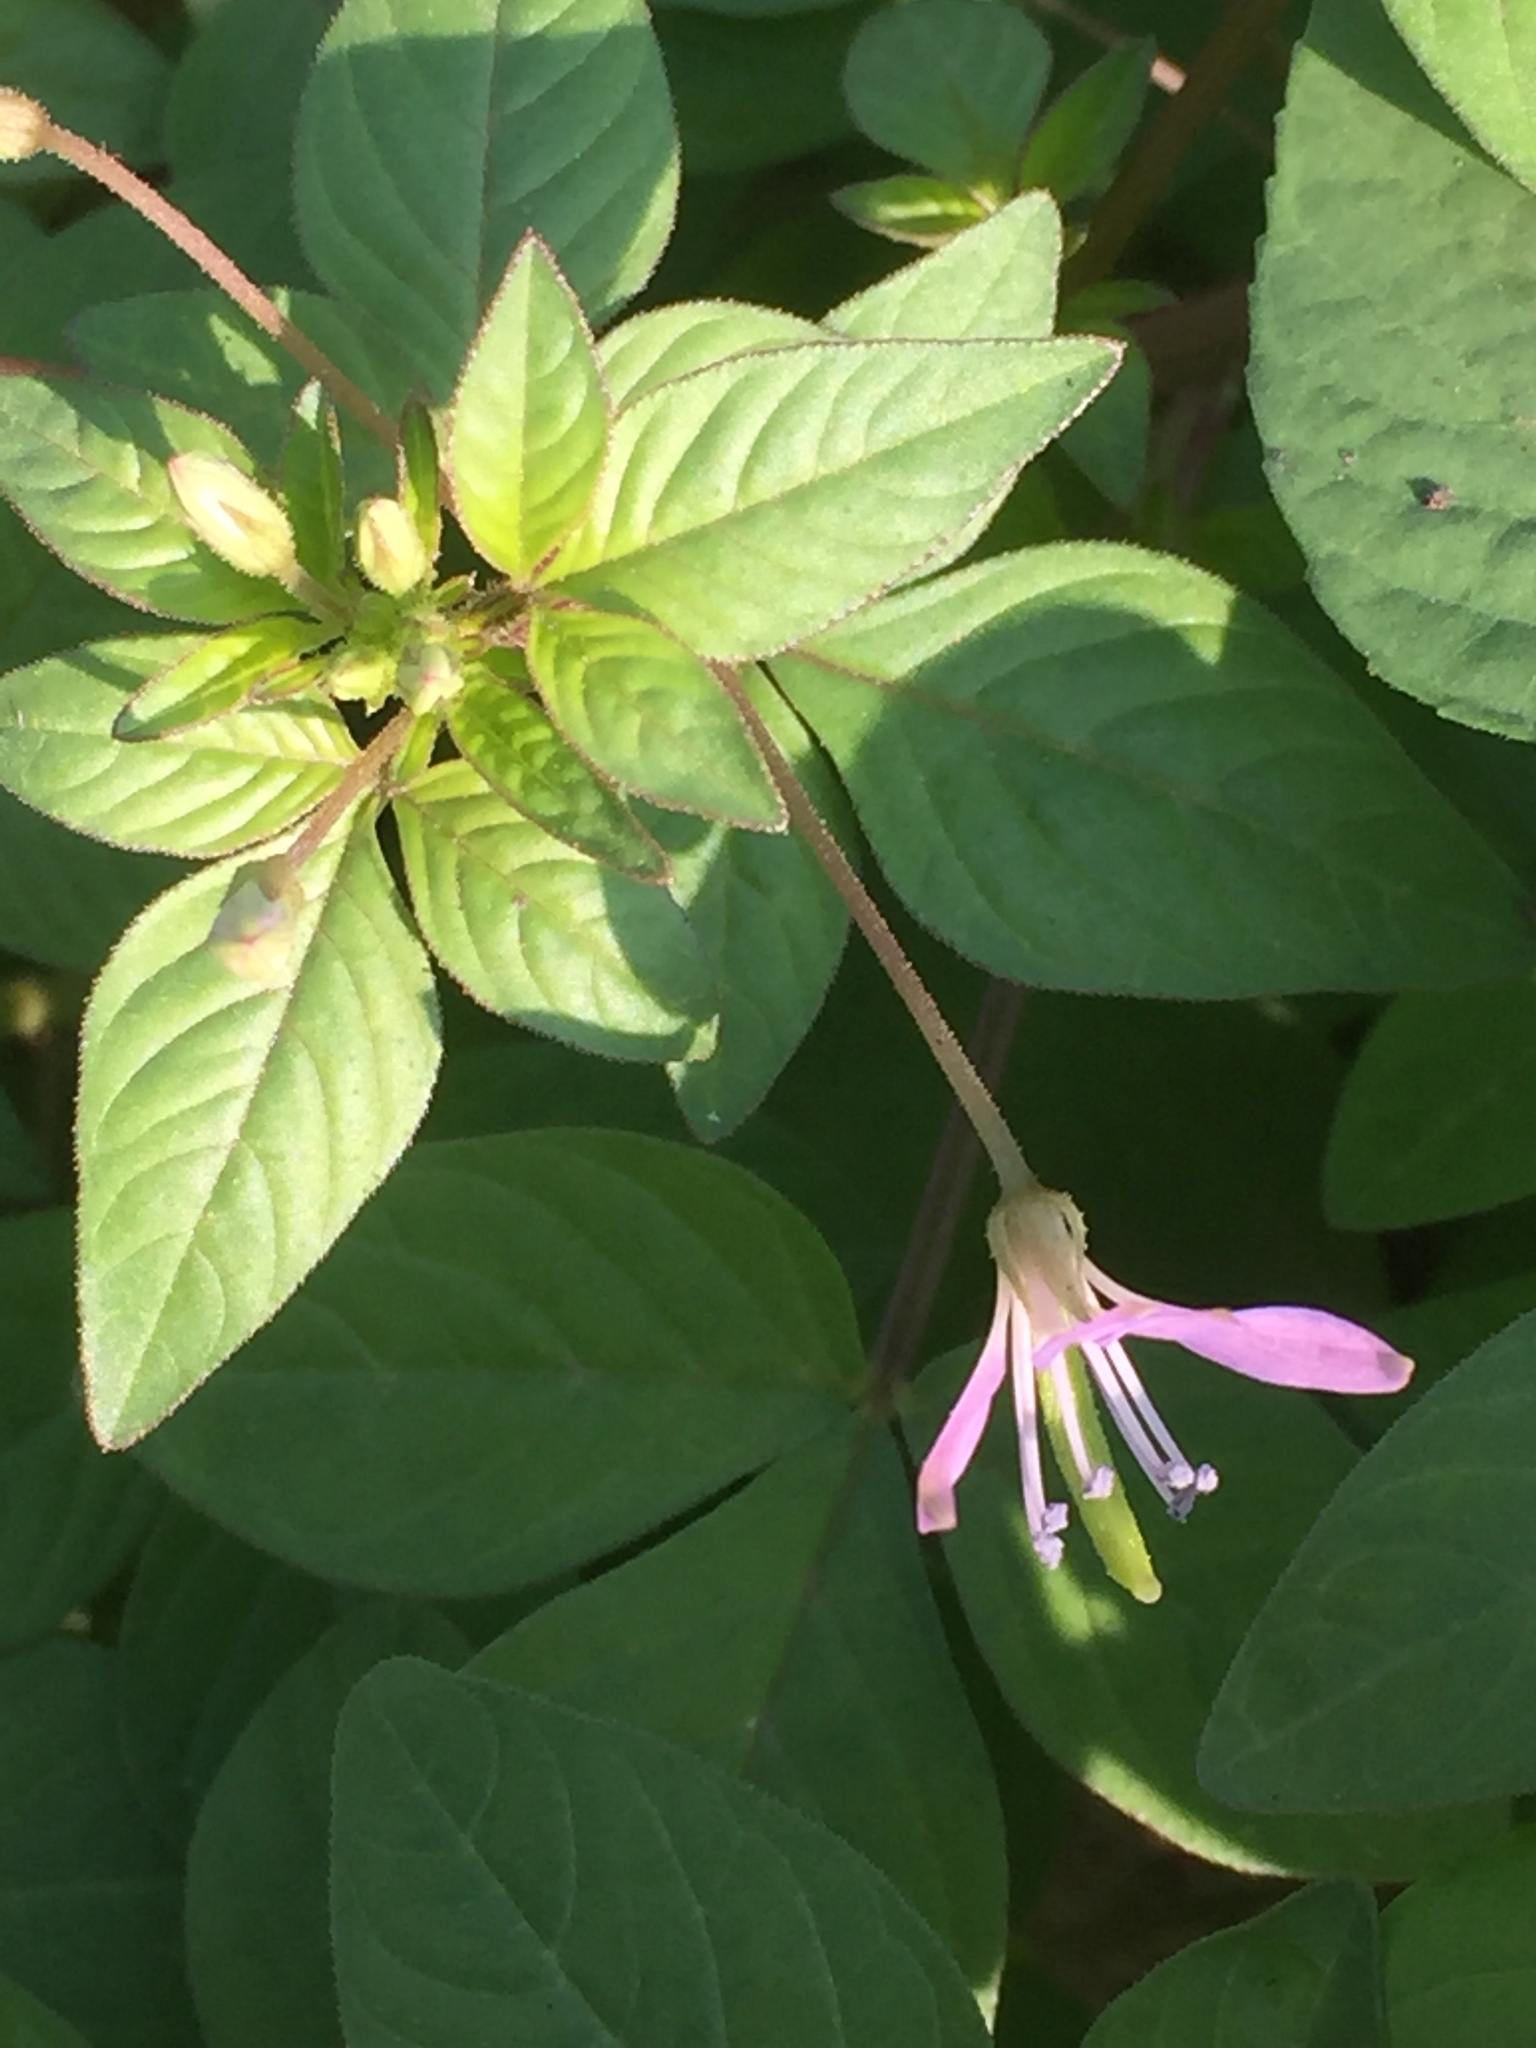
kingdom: Plantae
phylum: Tracheophyta
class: Magnoliopsida
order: Brassicales
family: Cleomaceae
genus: Sieruela
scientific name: Sieruela rutidosperma
